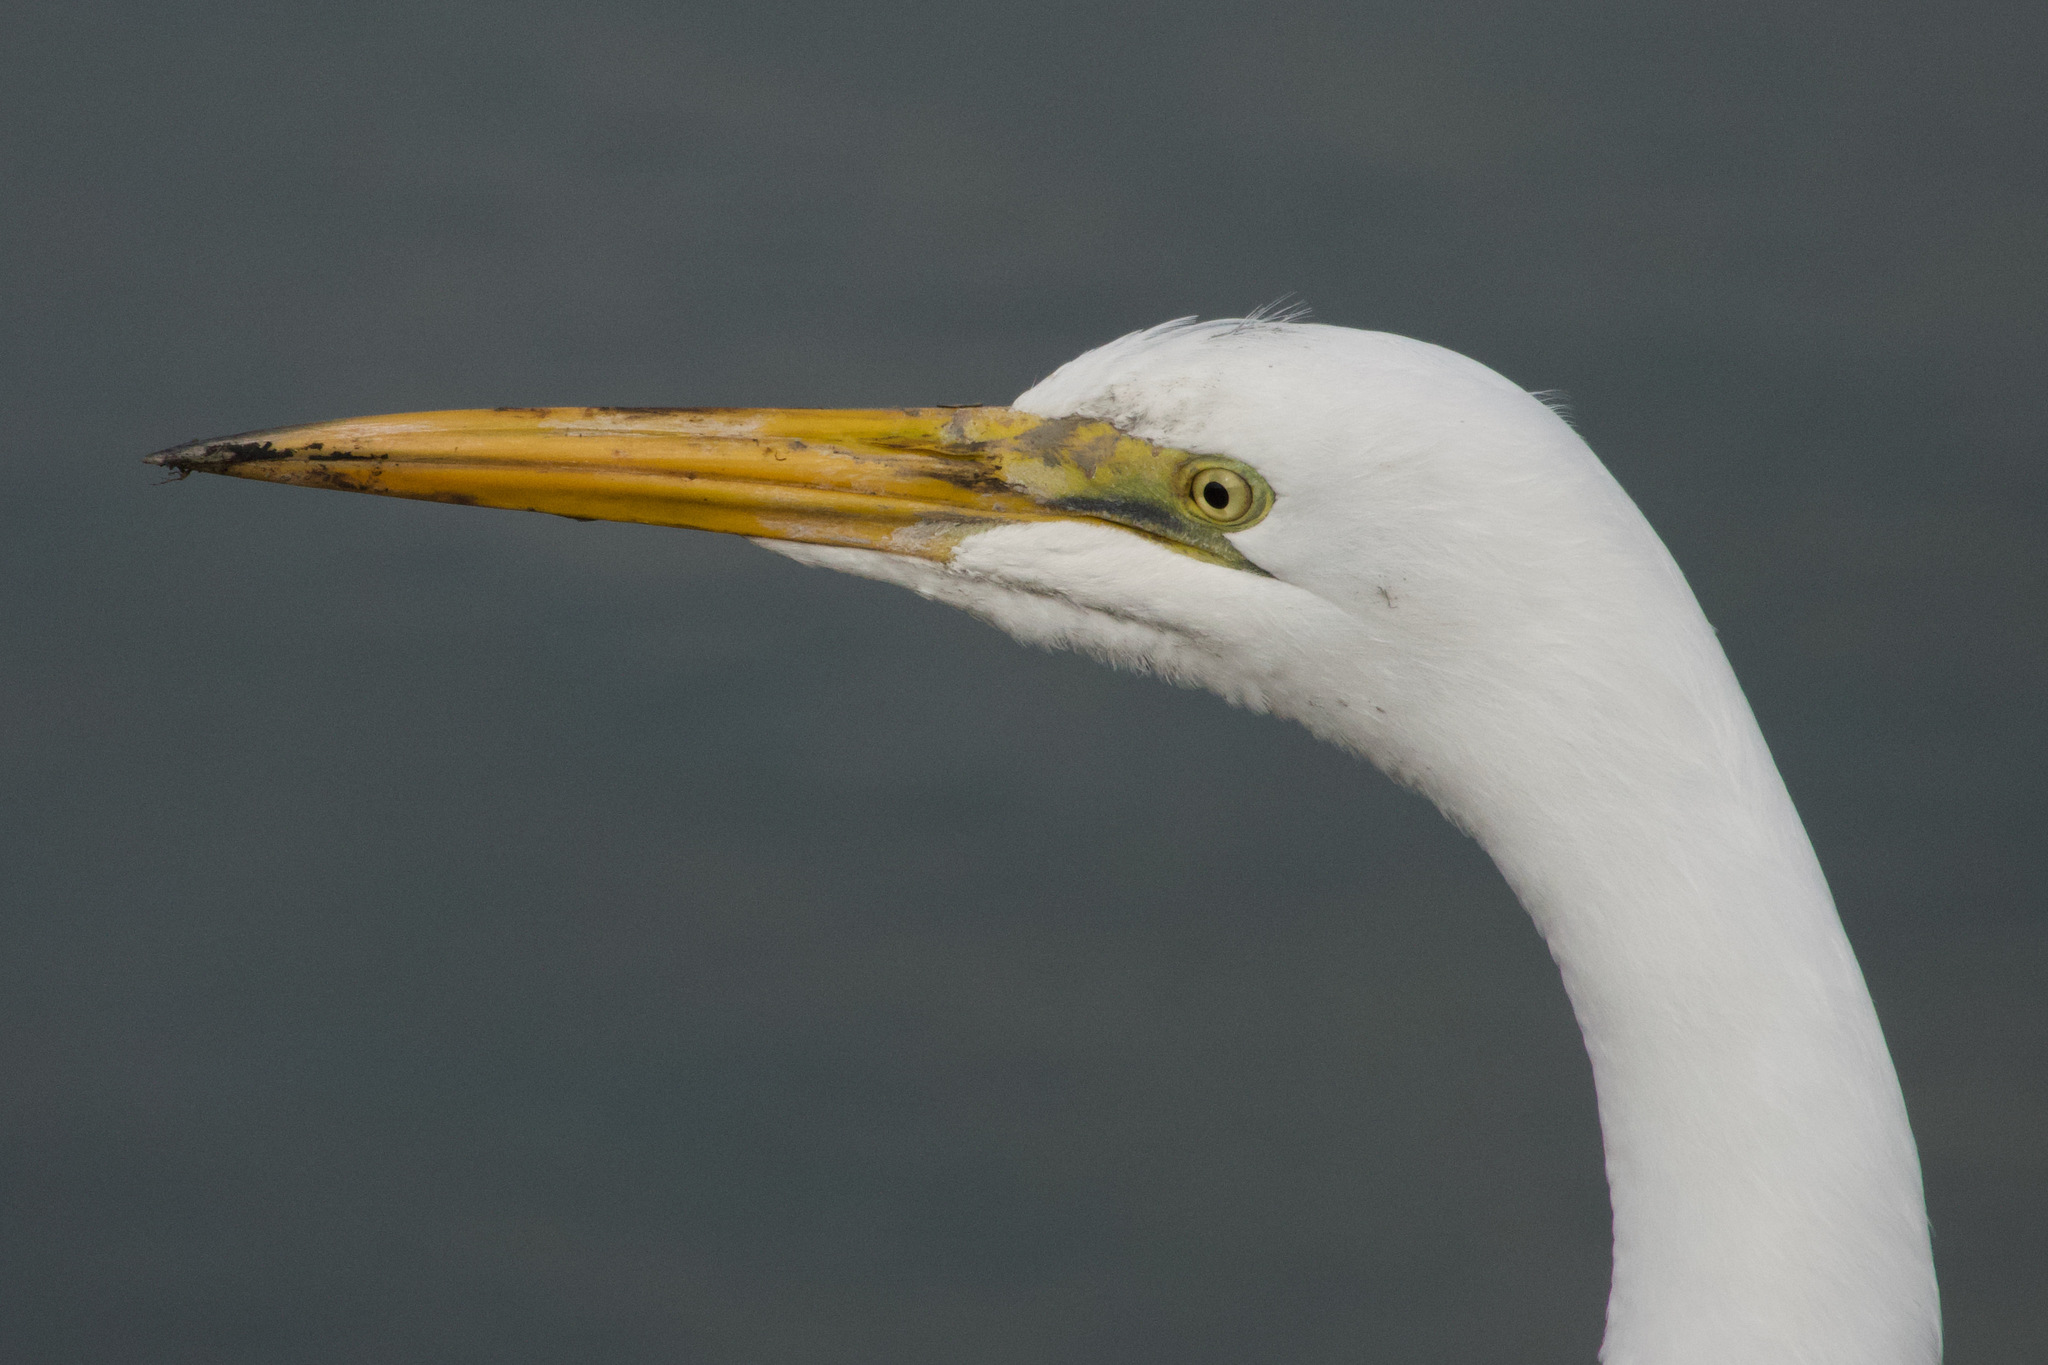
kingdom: Animalia
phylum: Chordata
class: Aves
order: Pelecaniformes
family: Ardeidae
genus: Ardea
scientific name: Ardea alba
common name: Great egret
